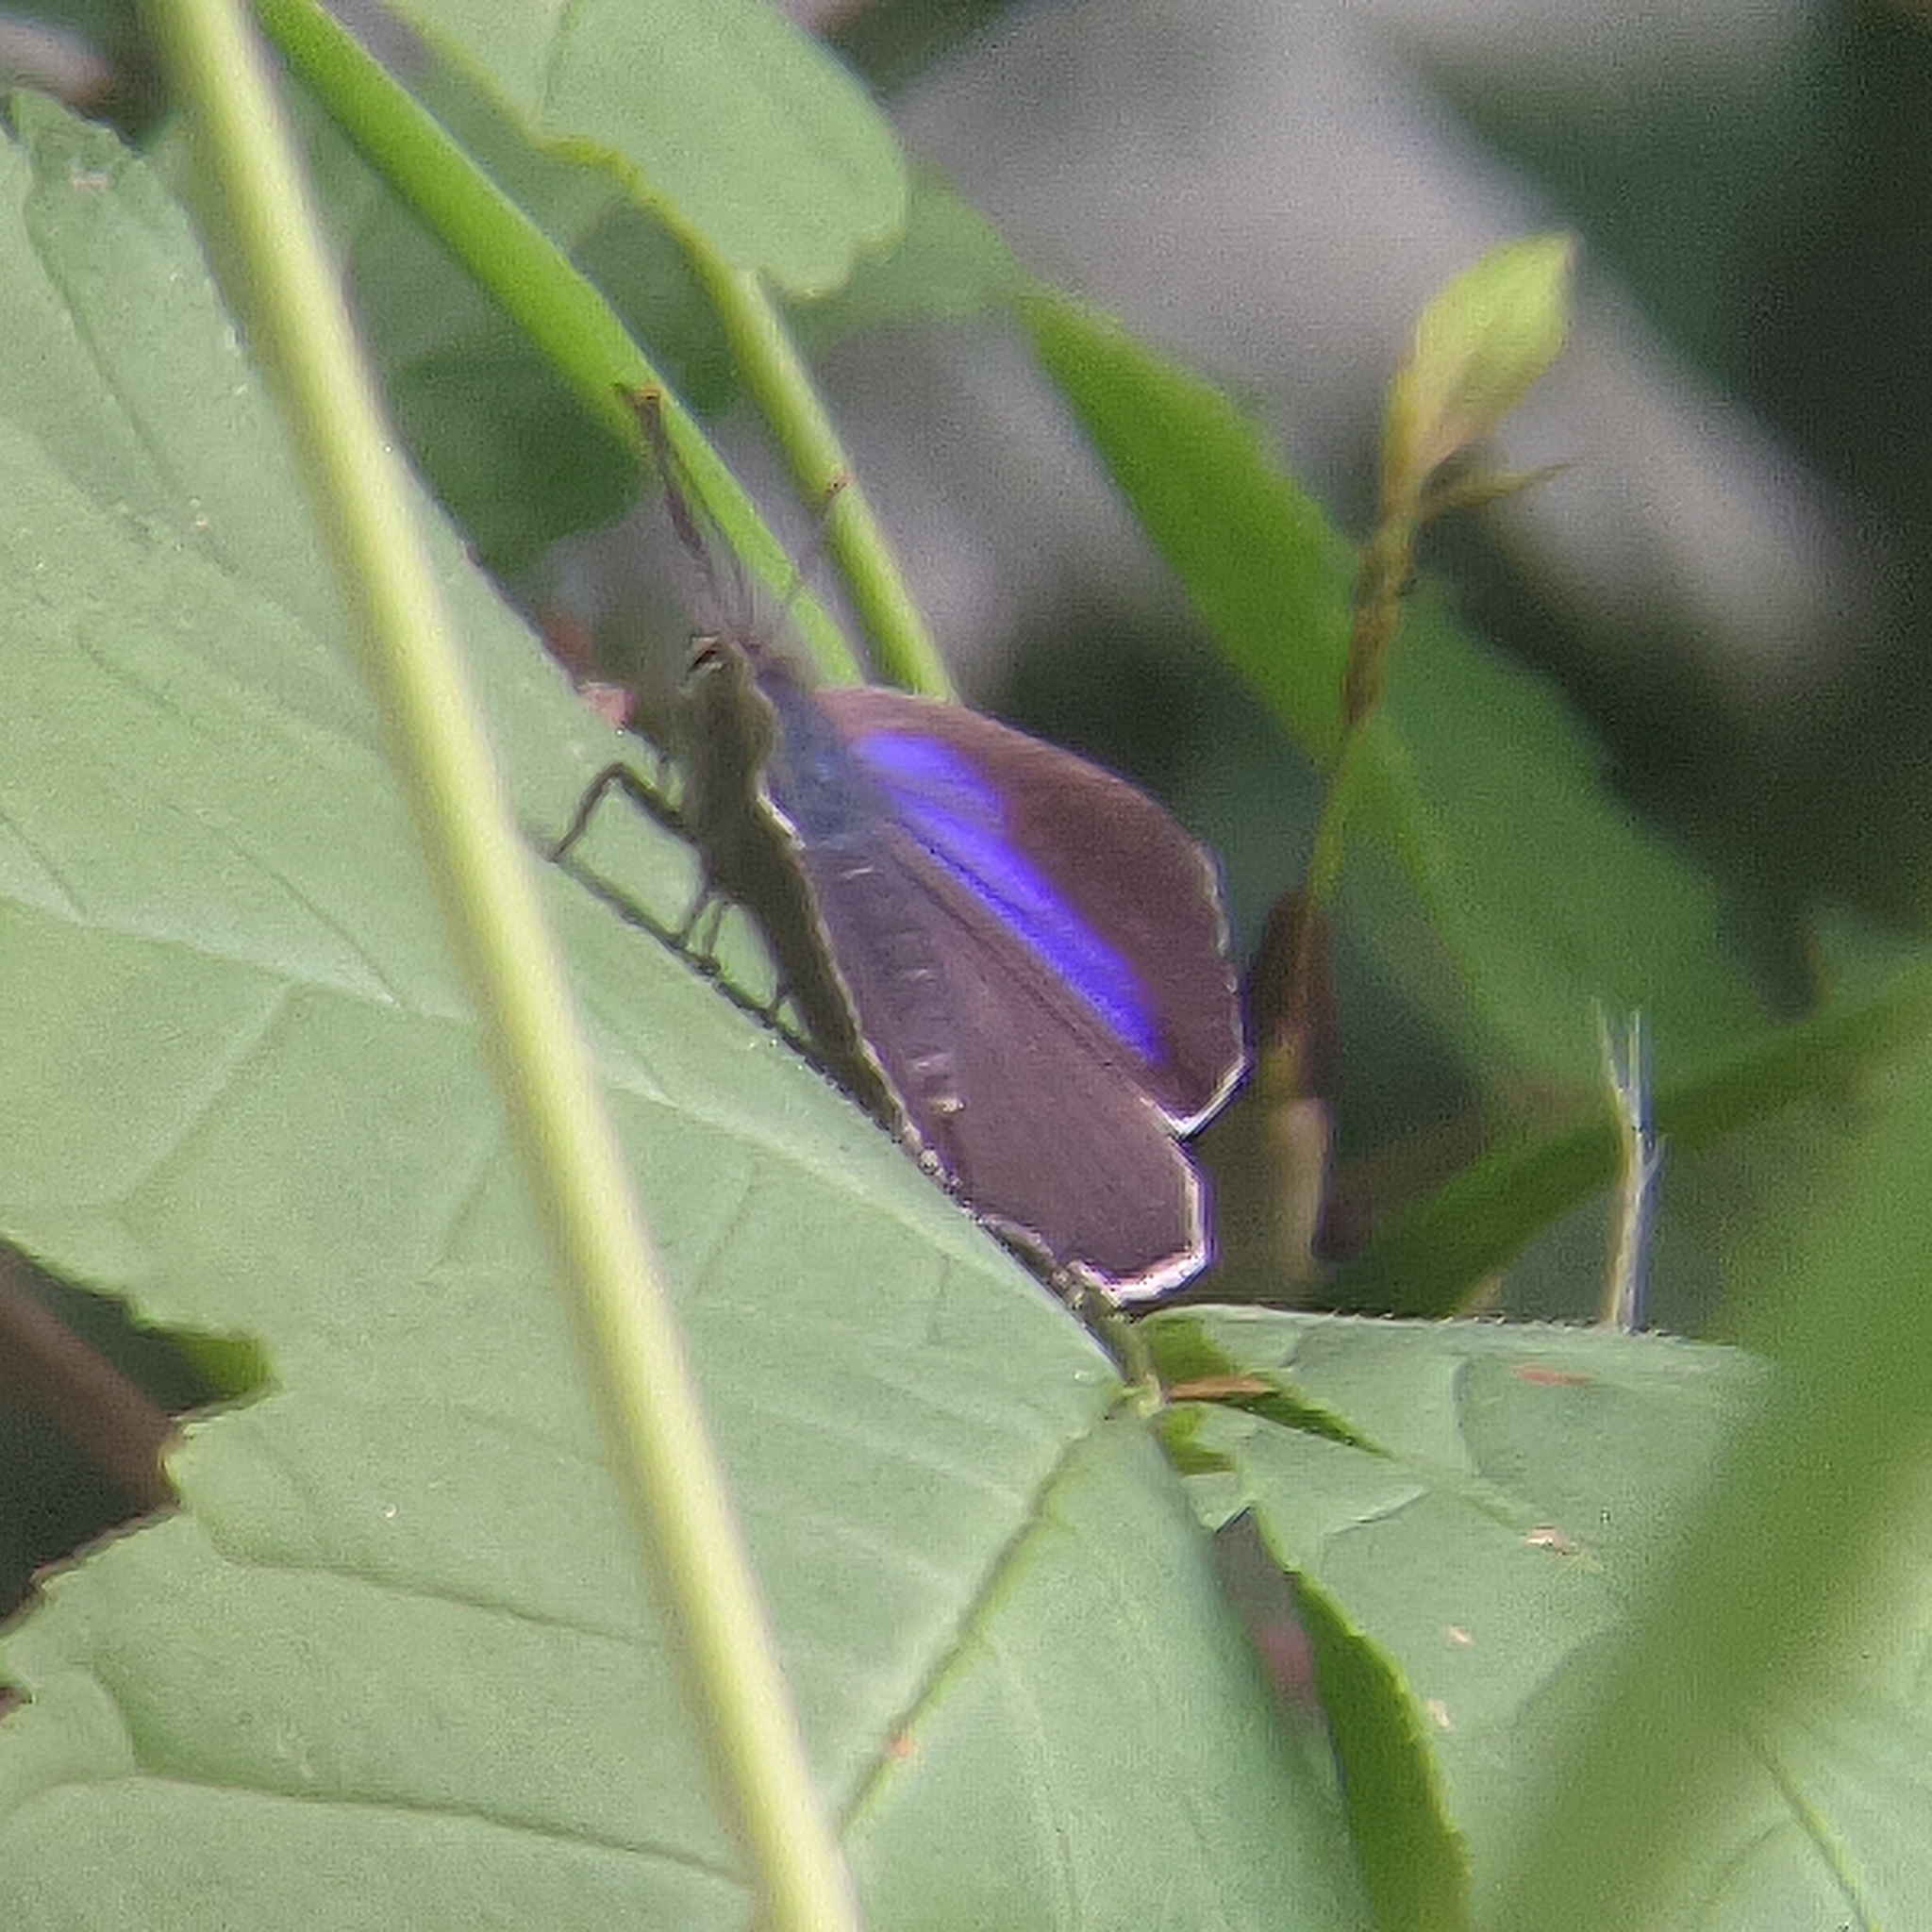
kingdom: Animalia
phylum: Arthropoda
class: Insecta
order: Lepidoptera
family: Lycaenidae
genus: Quercusia
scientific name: Quercusia quercus
